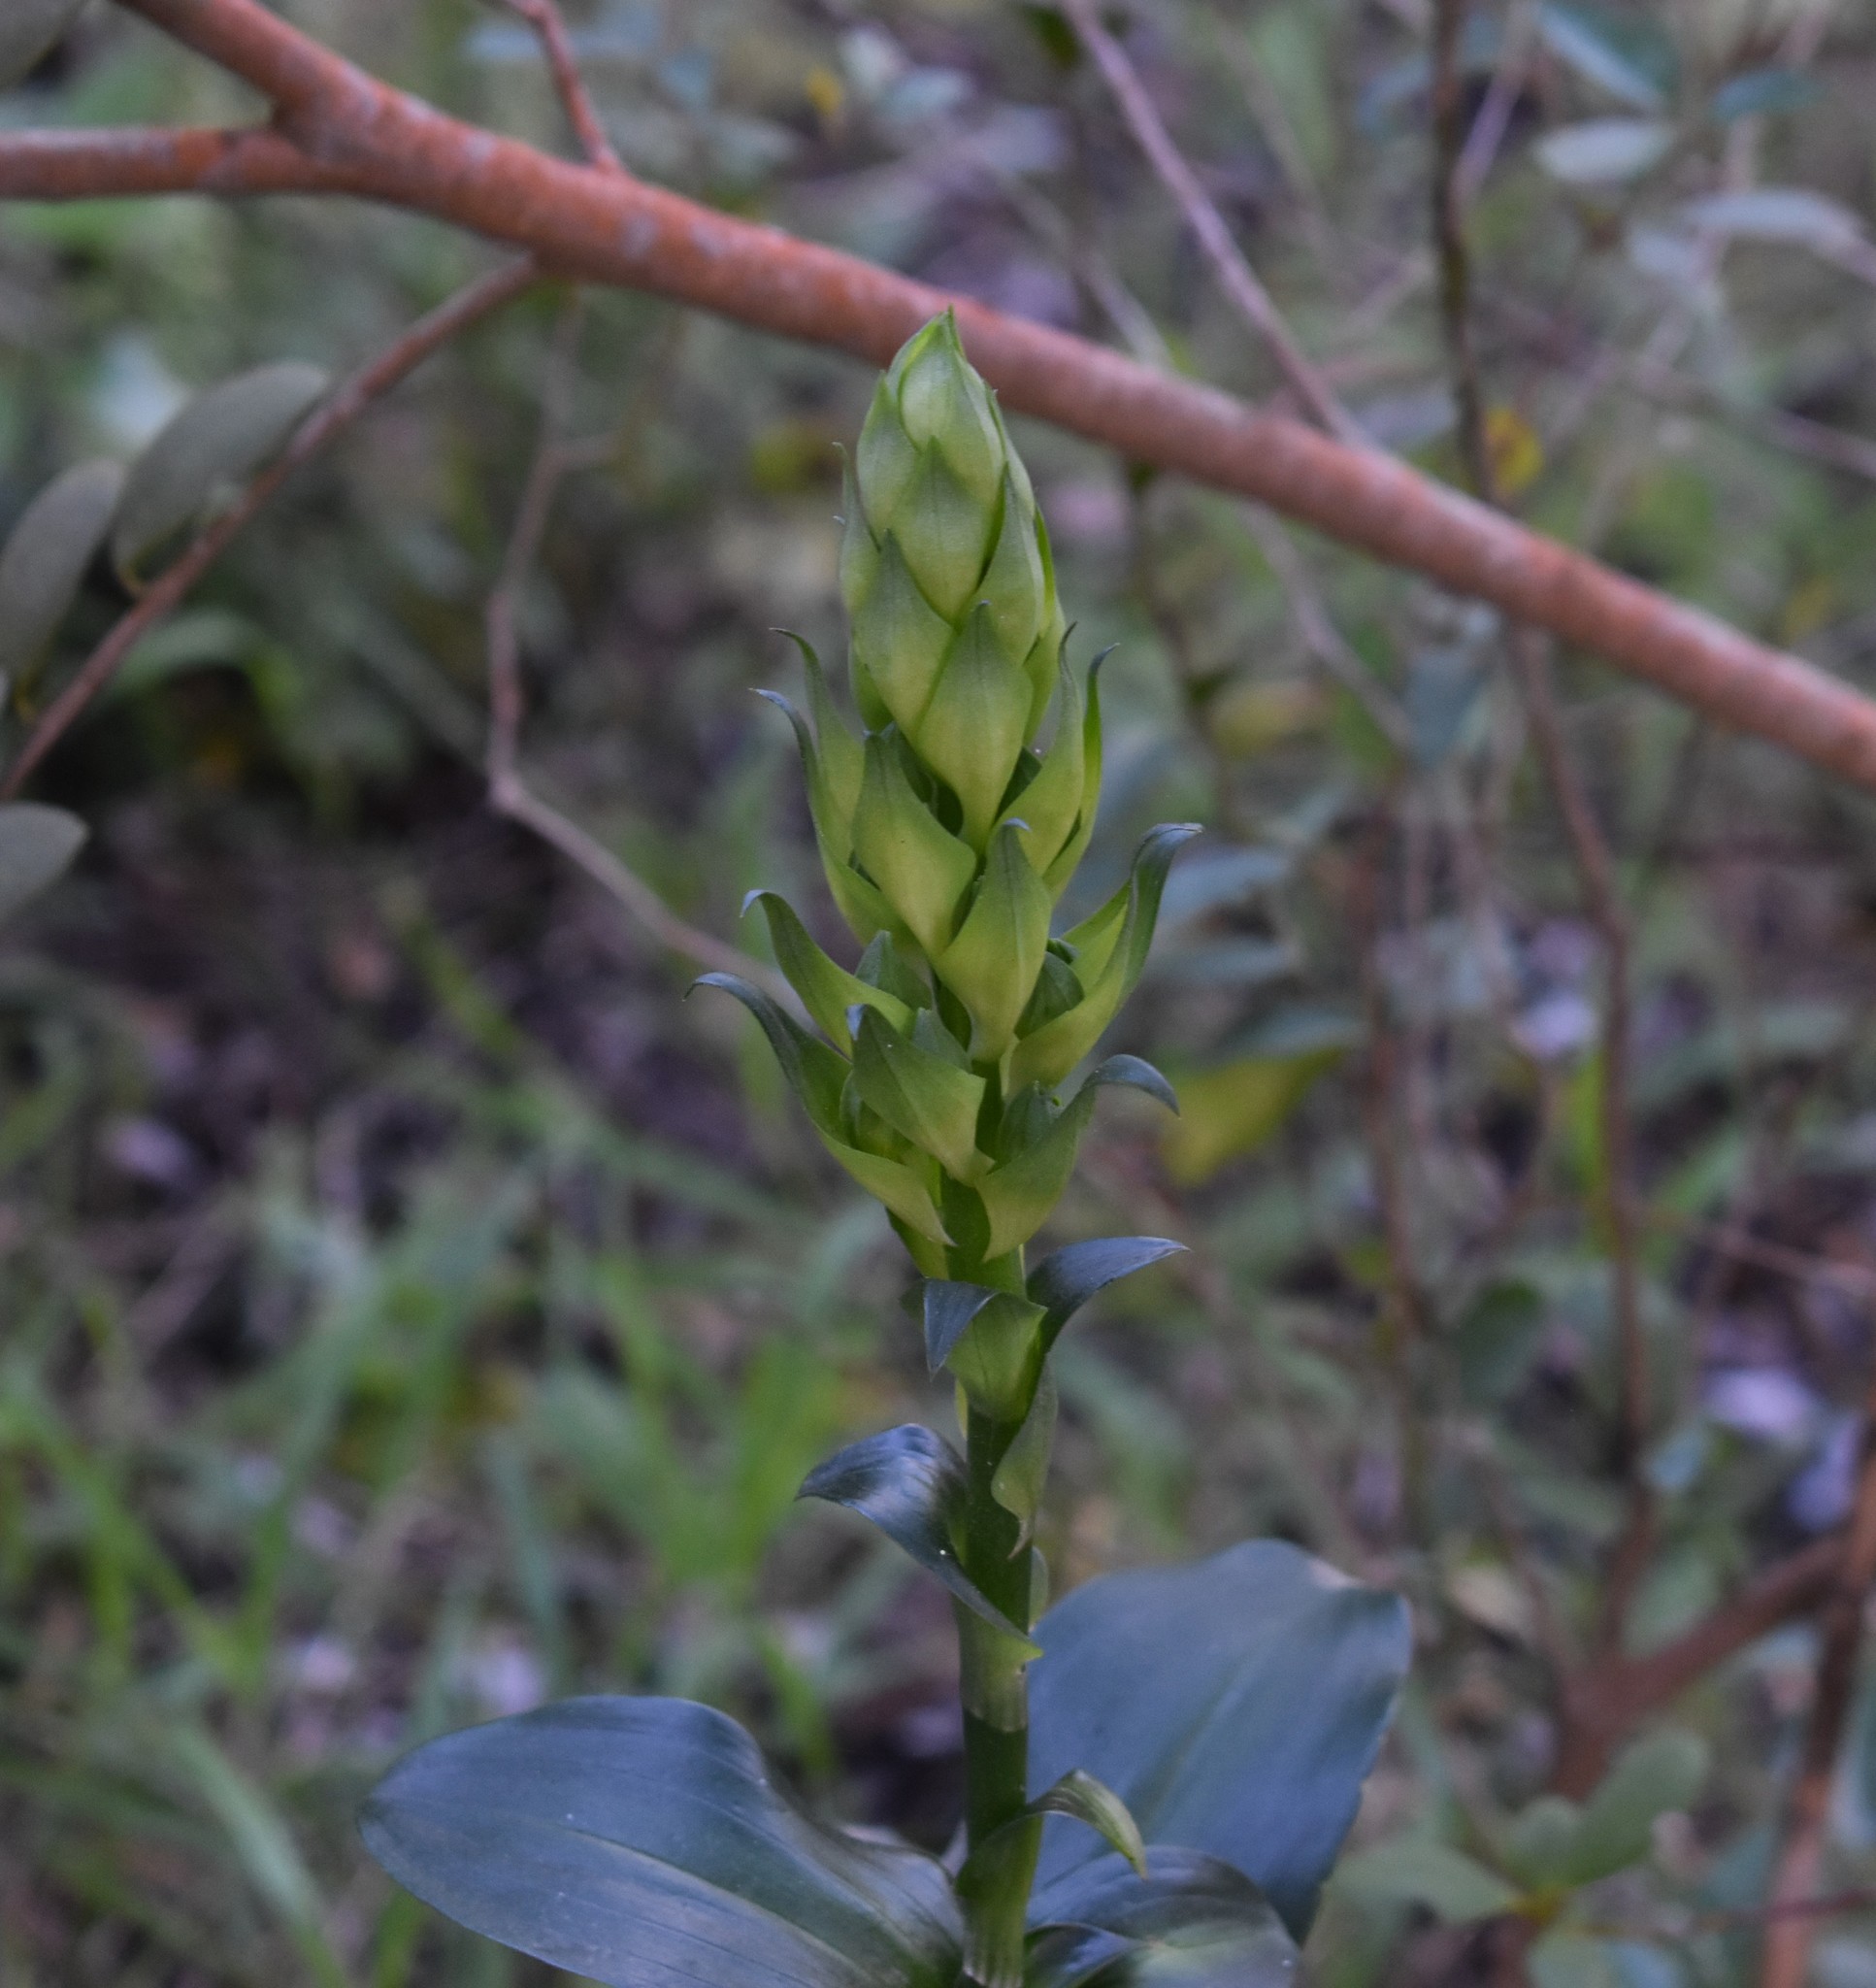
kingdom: Plantae
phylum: Tracheophyta
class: Liliopsida
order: Asparagales
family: Orchidaceae
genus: Bonatea
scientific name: Bonatea speciosa
